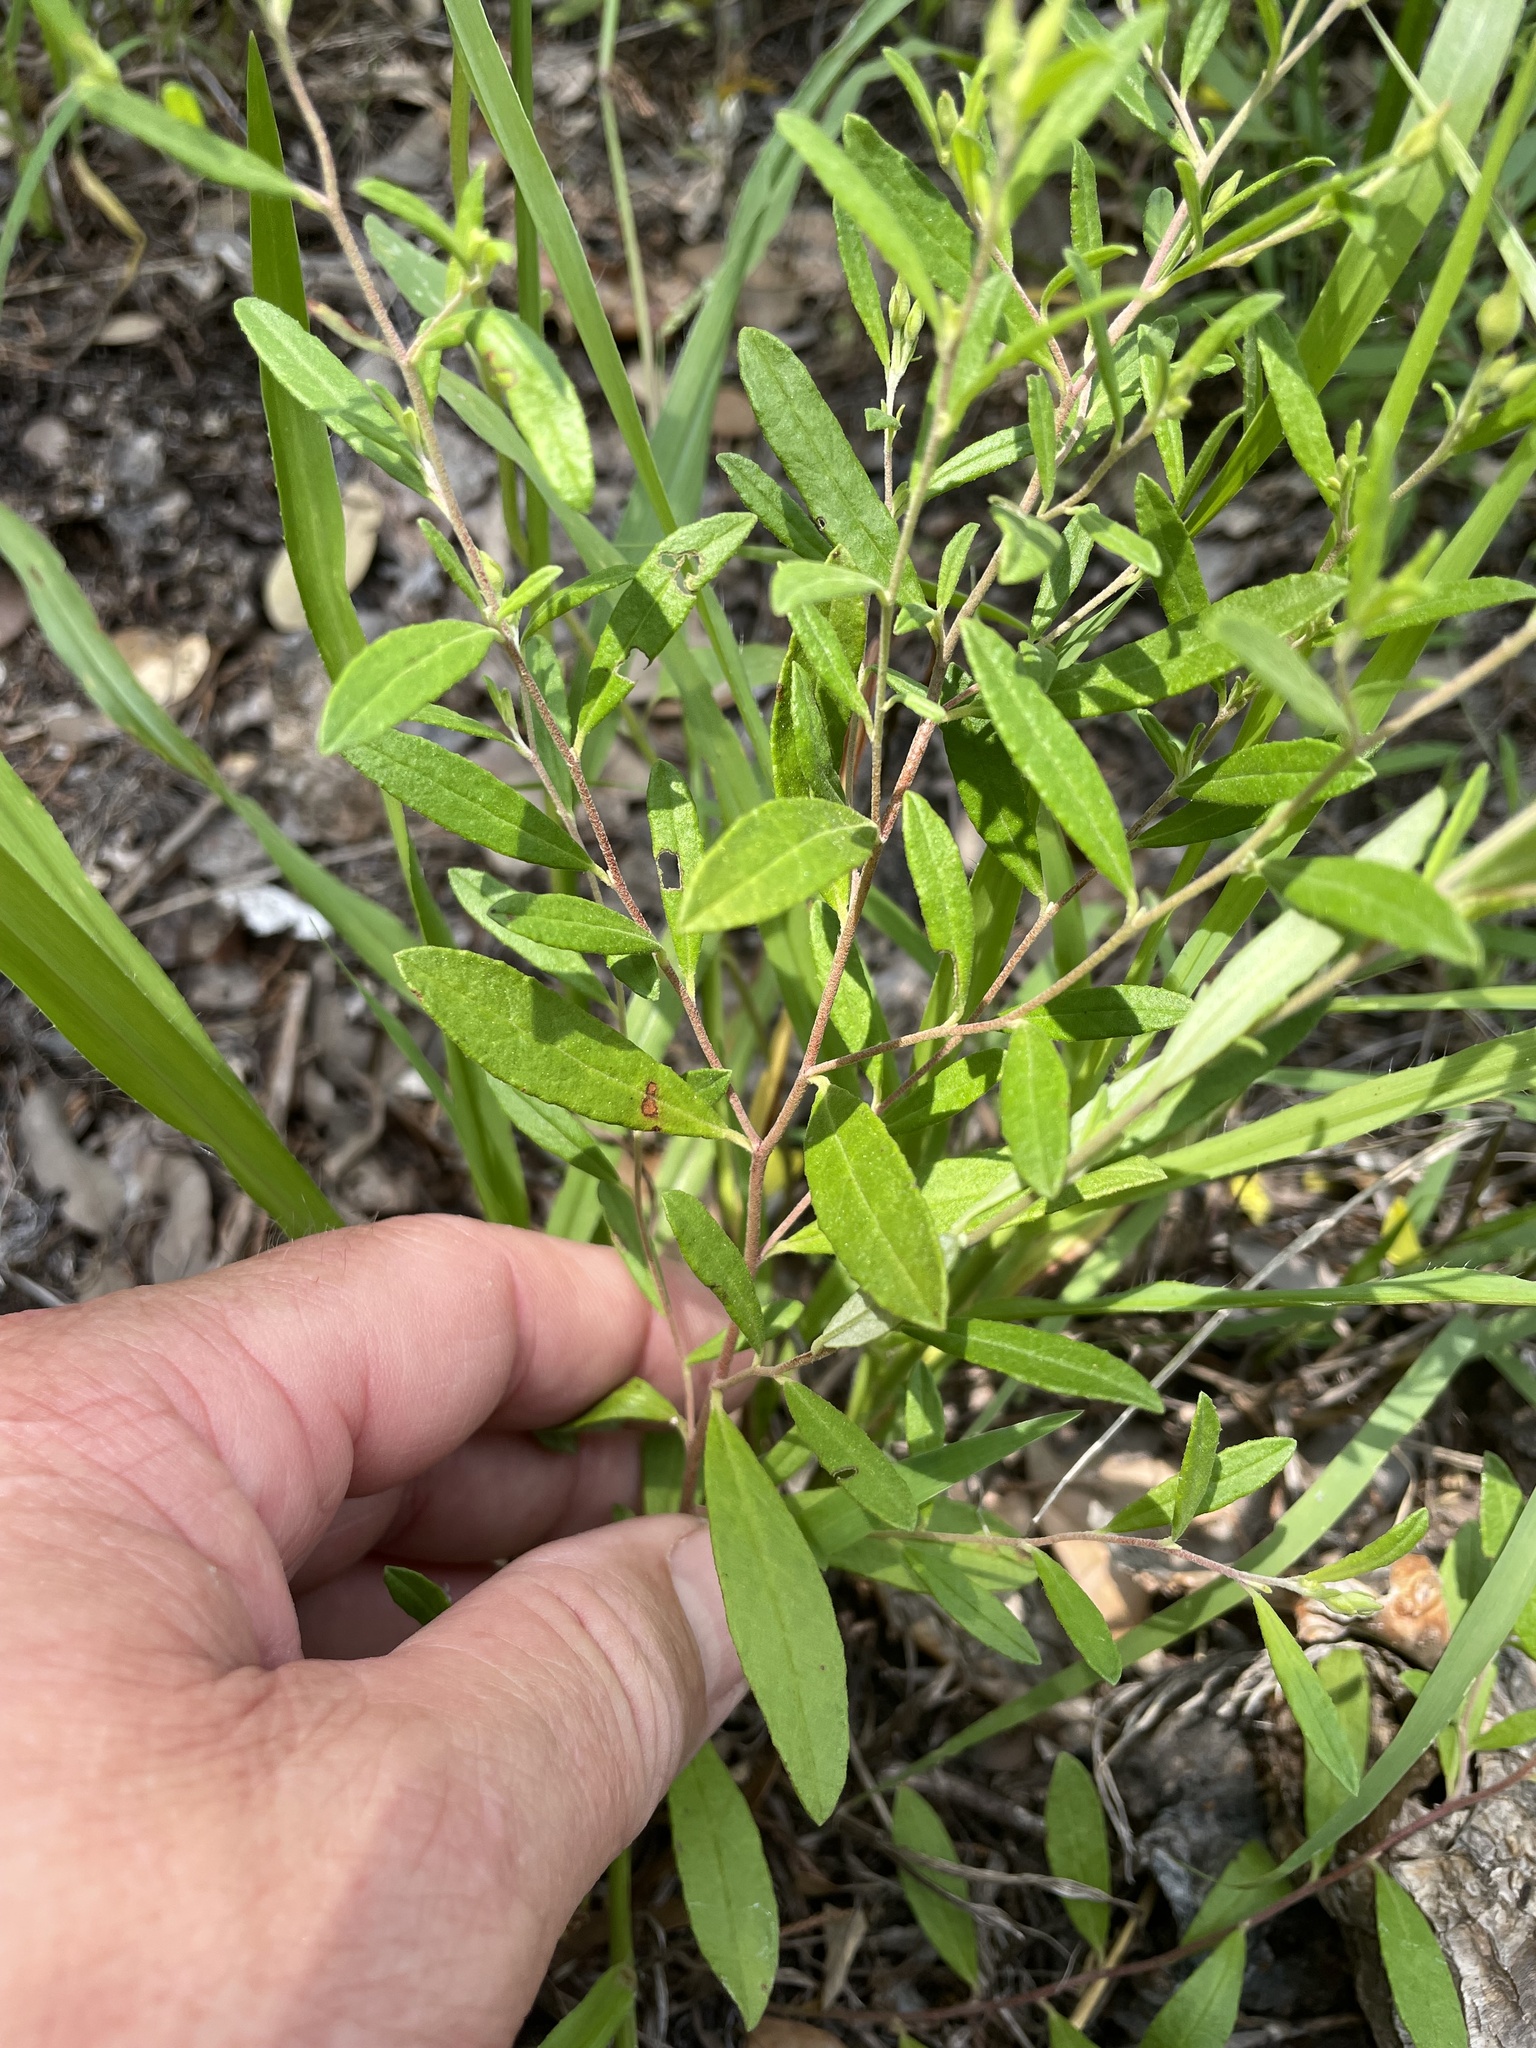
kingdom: Plantae
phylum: Tracheophyta
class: Magnoliopsida
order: Malvales
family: Cistaceae
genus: Crocanthemum
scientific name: Crocanthemum georgianum
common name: Georgia frostweed
